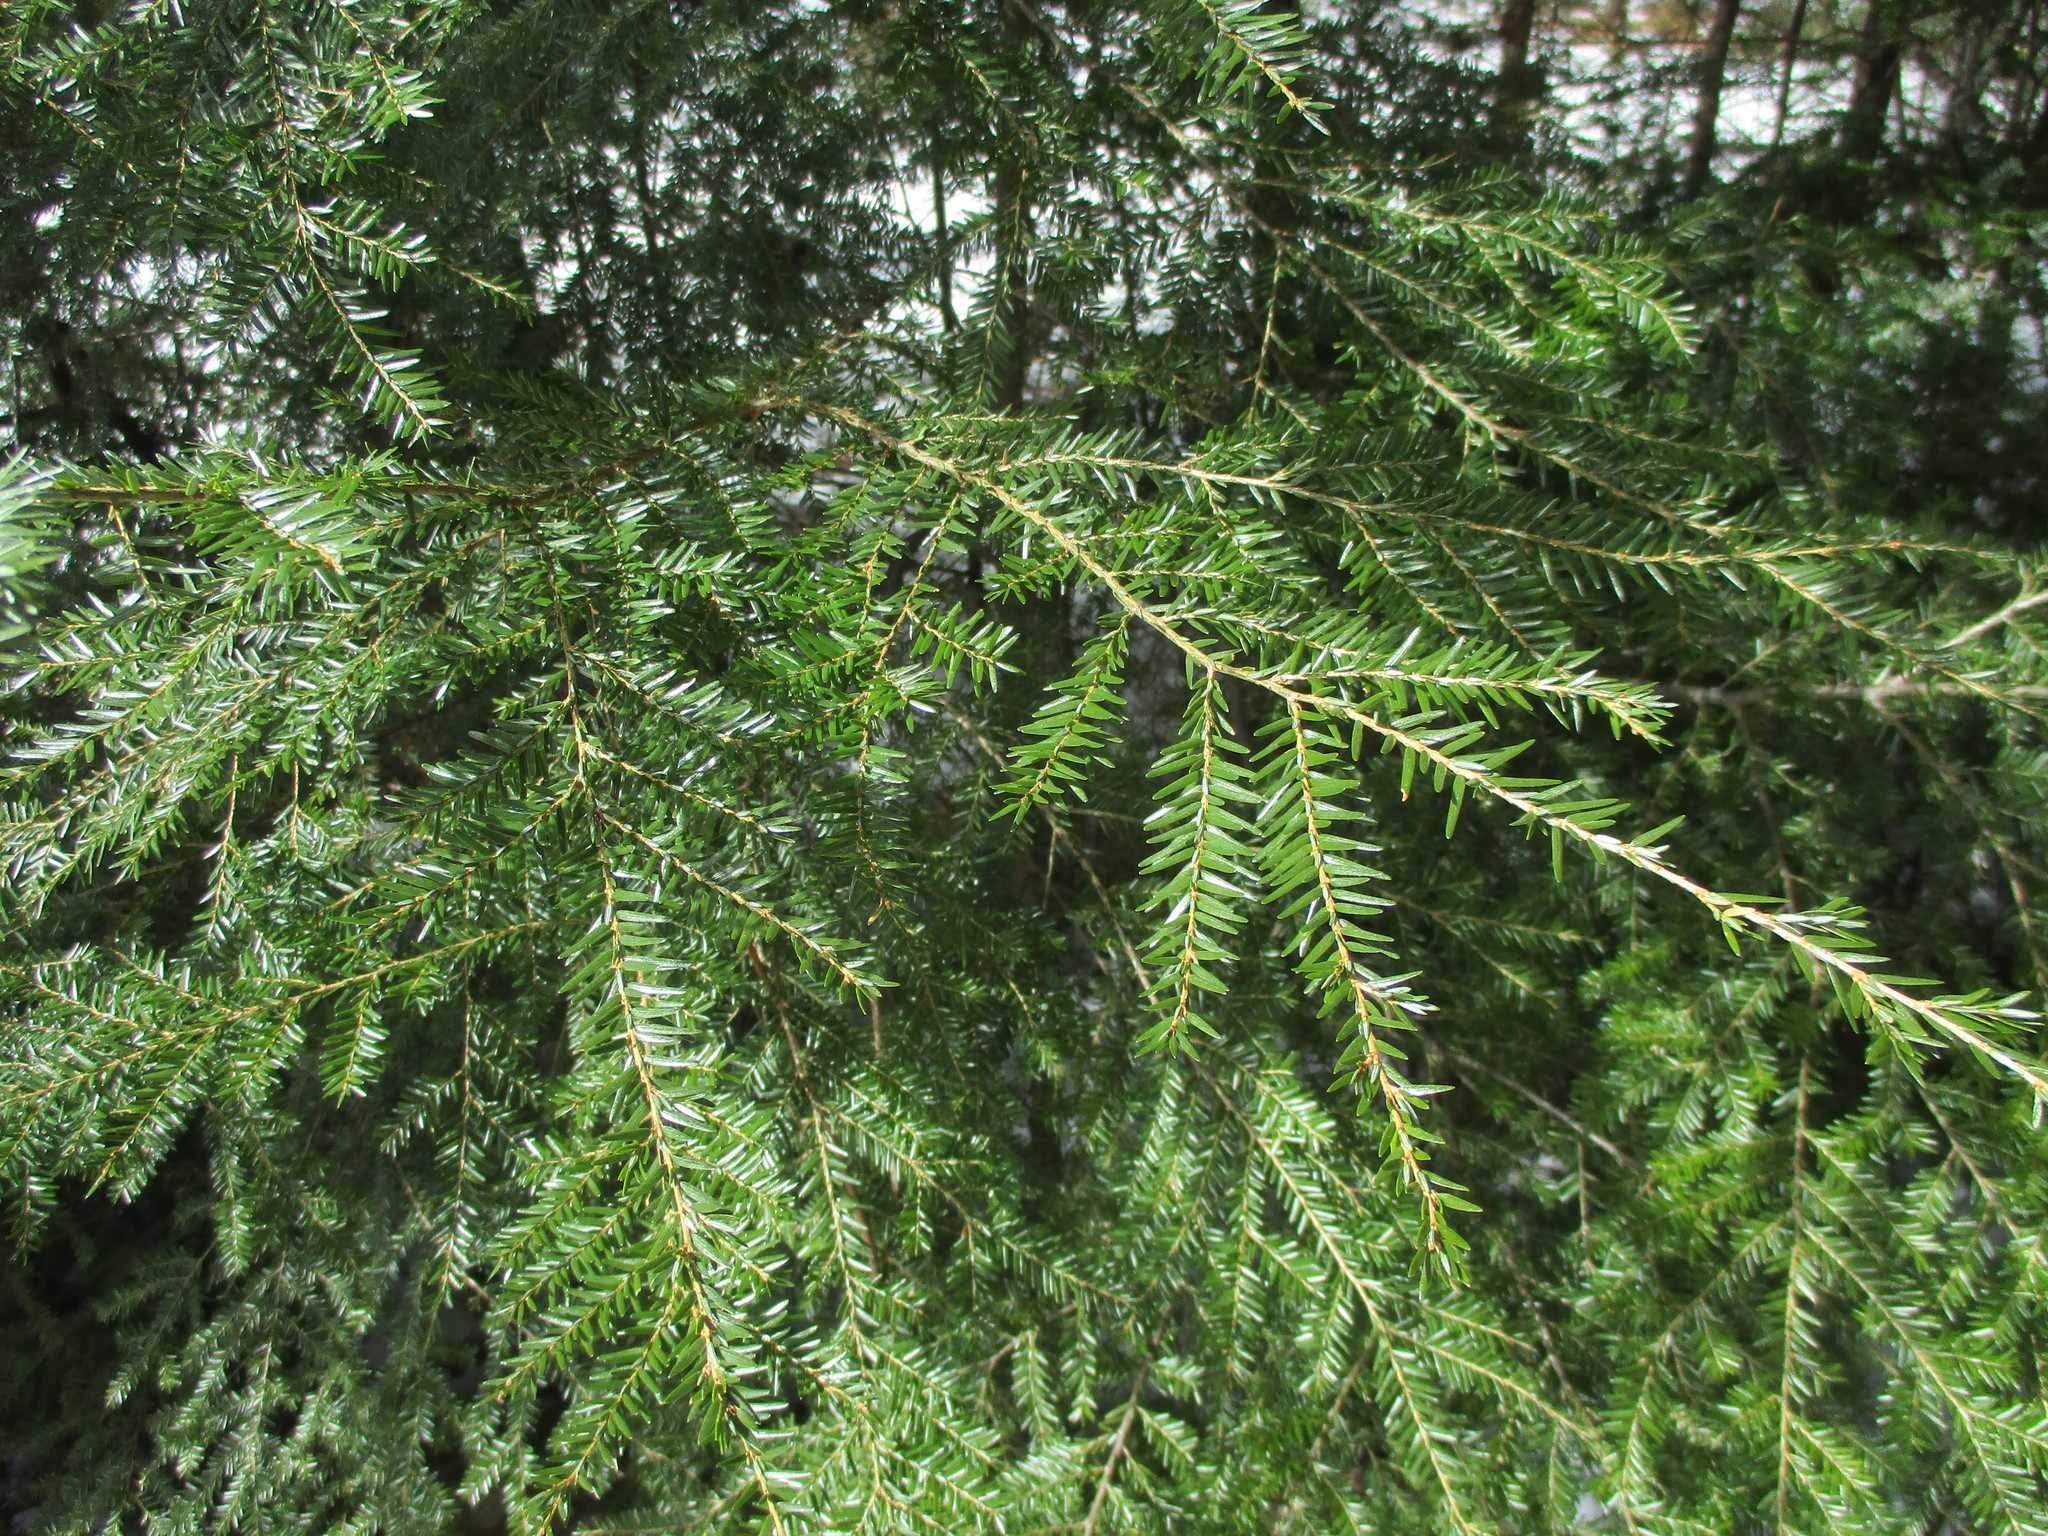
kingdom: Plantae
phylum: Tracheophyta
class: Pinopsida
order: Pinales
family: Pinaceae
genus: Tsuga
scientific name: Tsuga canadensis
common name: Eastern hemlock
